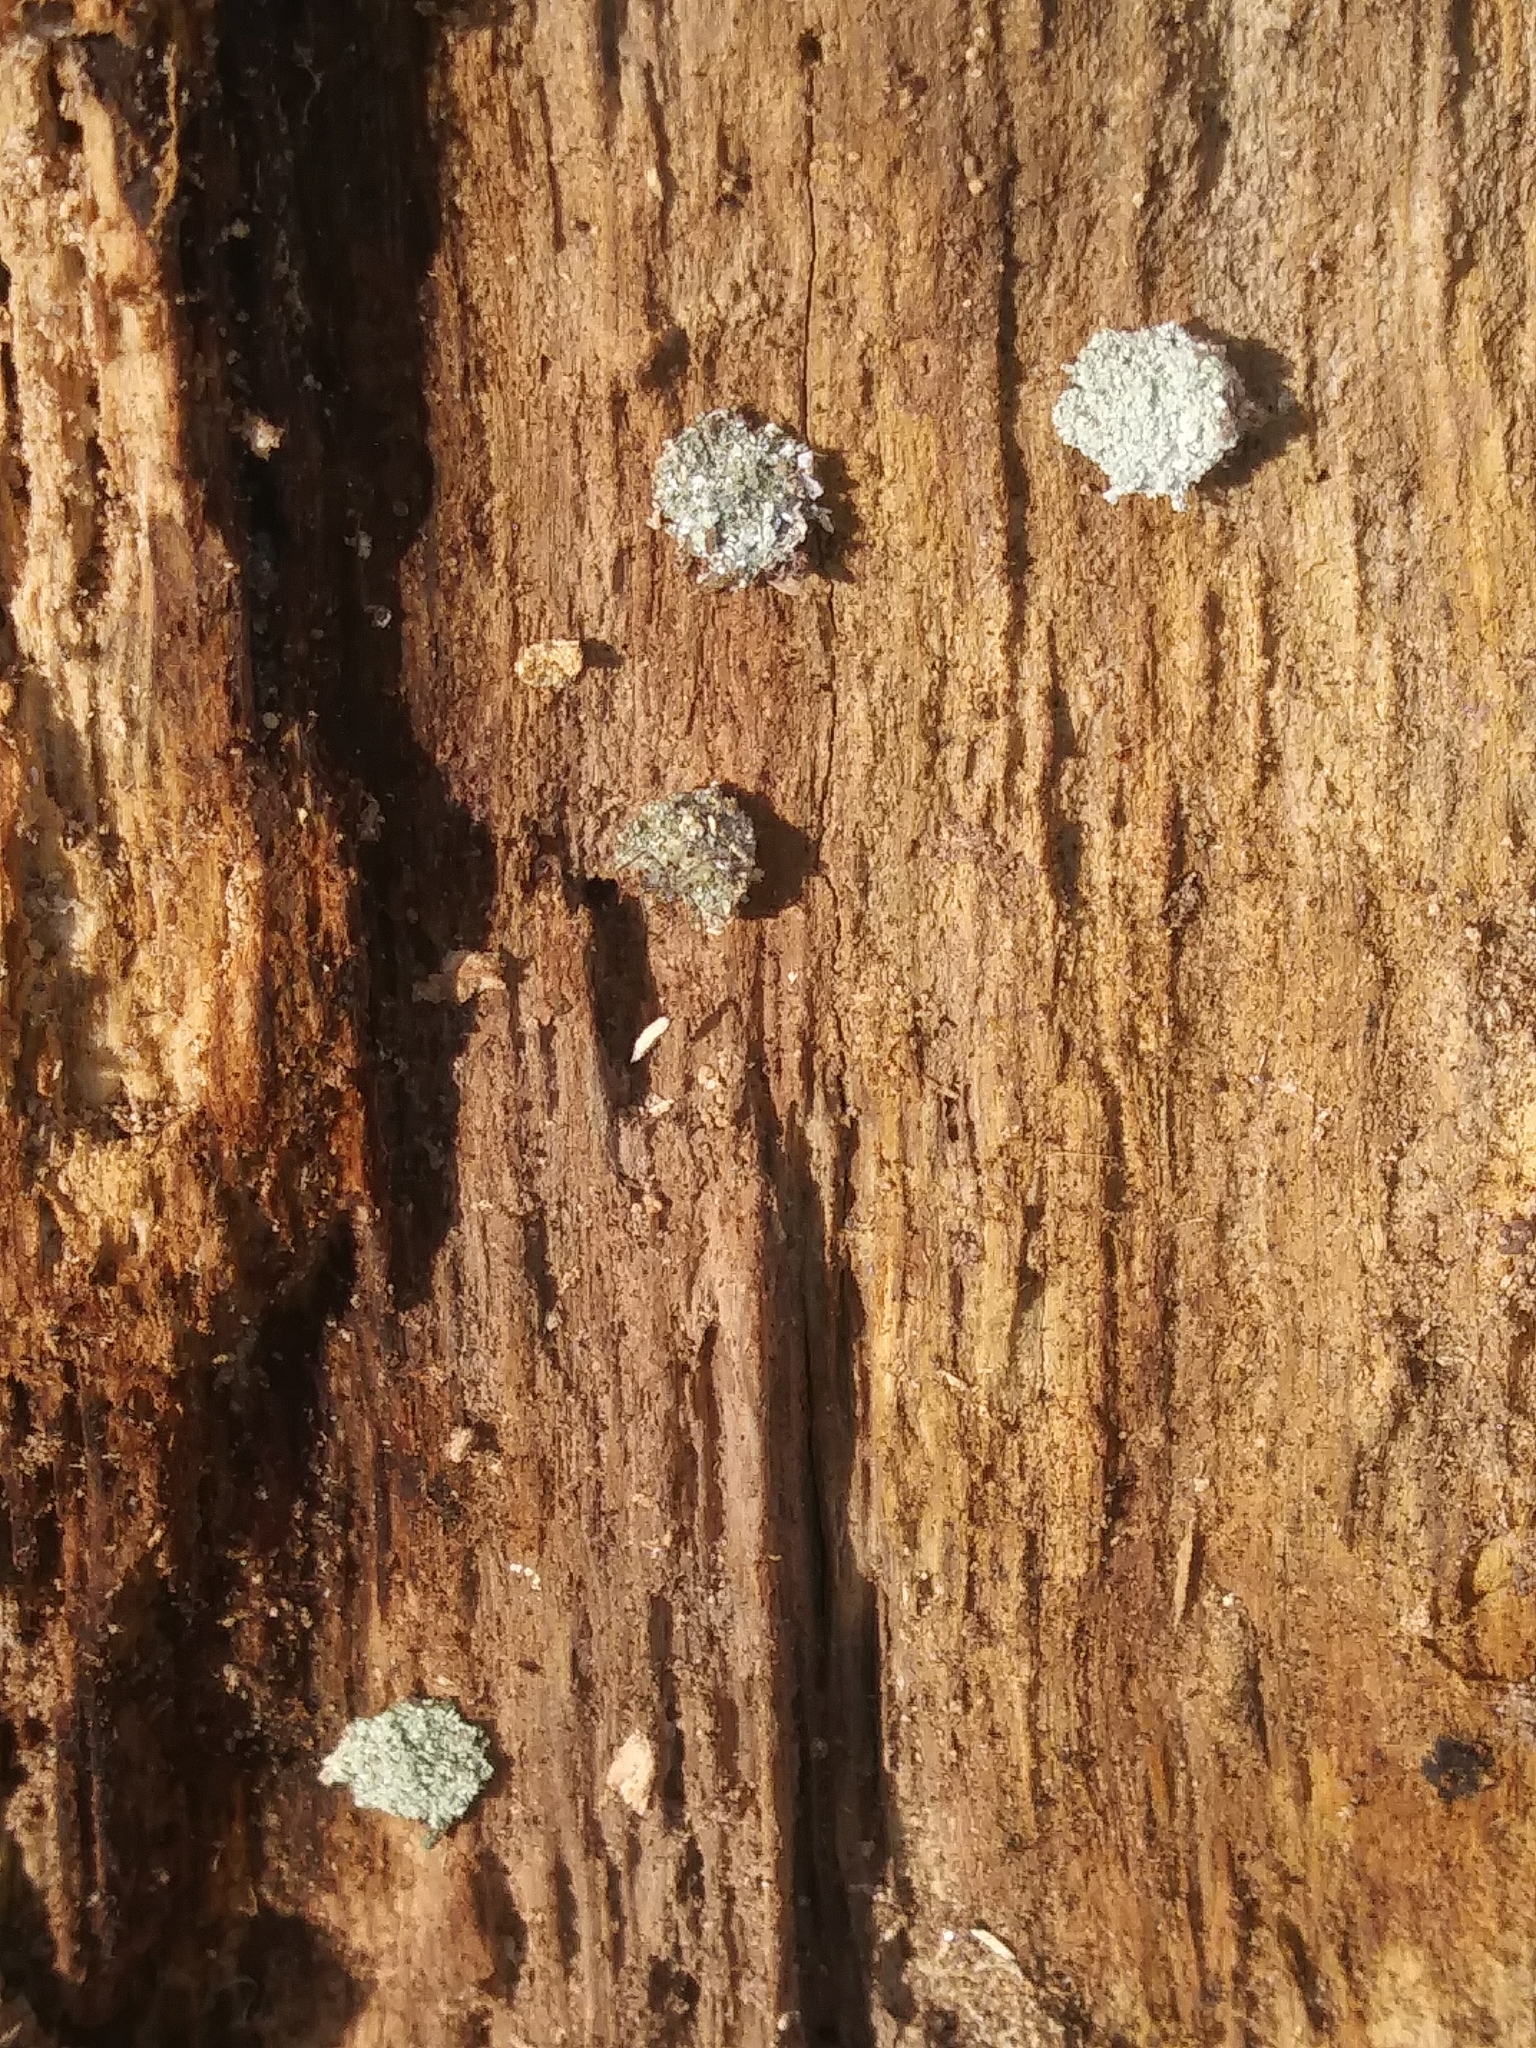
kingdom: Animalia
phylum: Arthropoda
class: Insecta
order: Neuroptera
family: Chrysopidae
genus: Leucochrysa
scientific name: Leucochrysa pavida
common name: Lichen-carrying green lacewing
